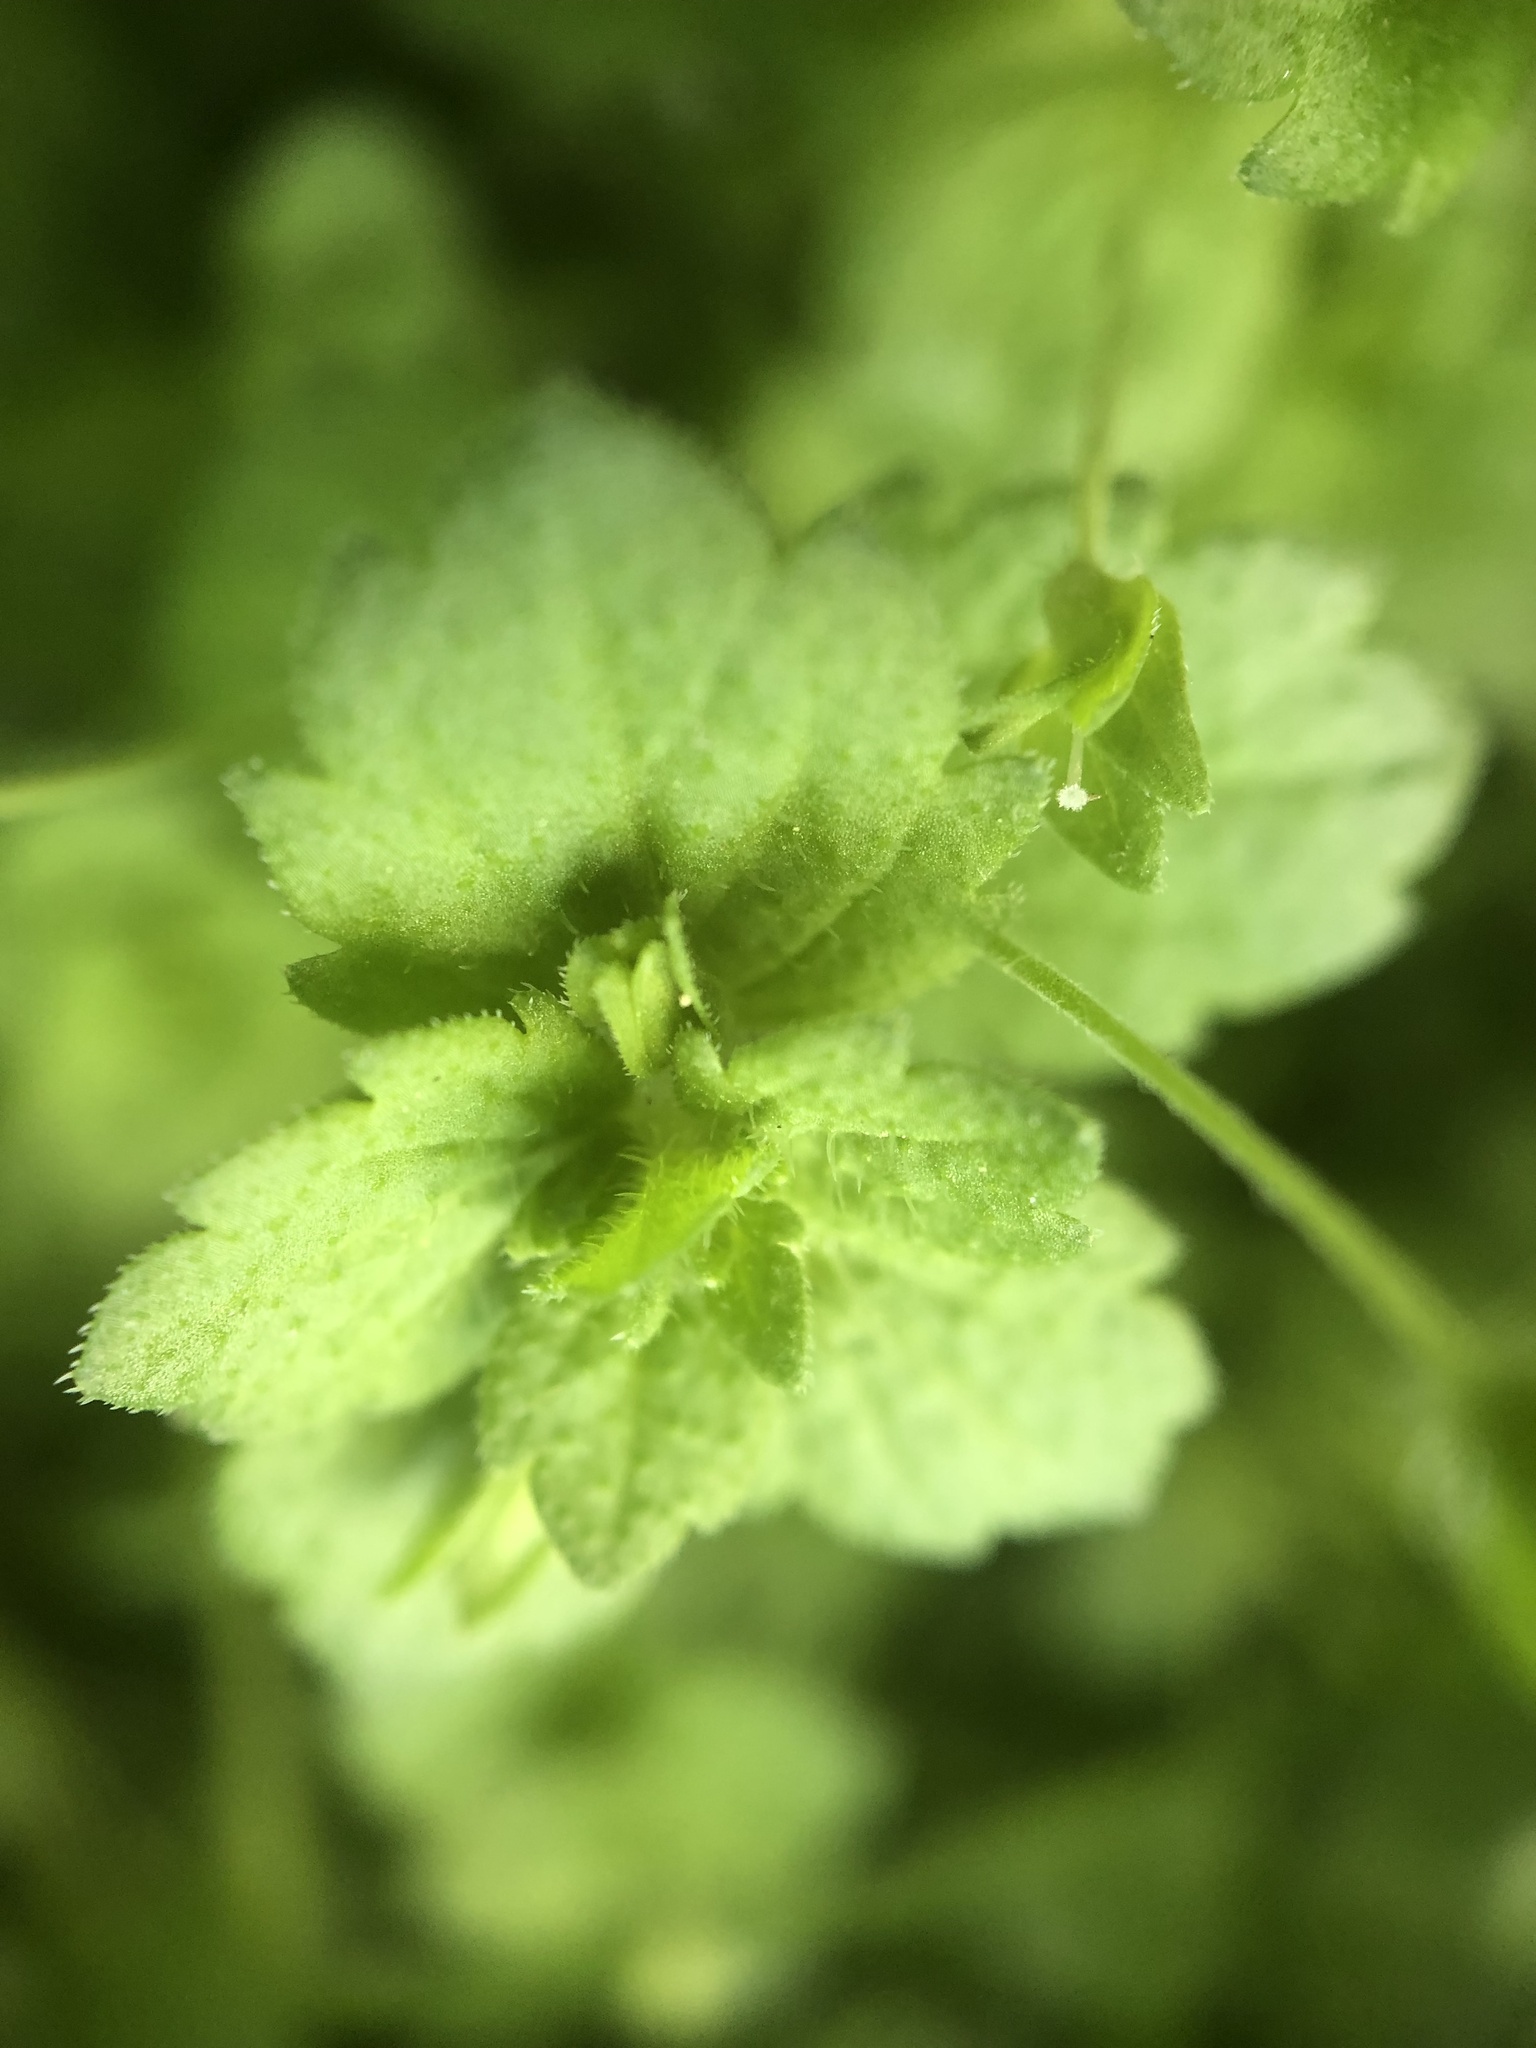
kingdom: Plantae
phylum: Tracheophyta
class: Magnoliopsida
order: Lamiales
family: Plantaginaceae
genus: Veronica
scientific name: Veronica persica
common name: Common field-speedwell
